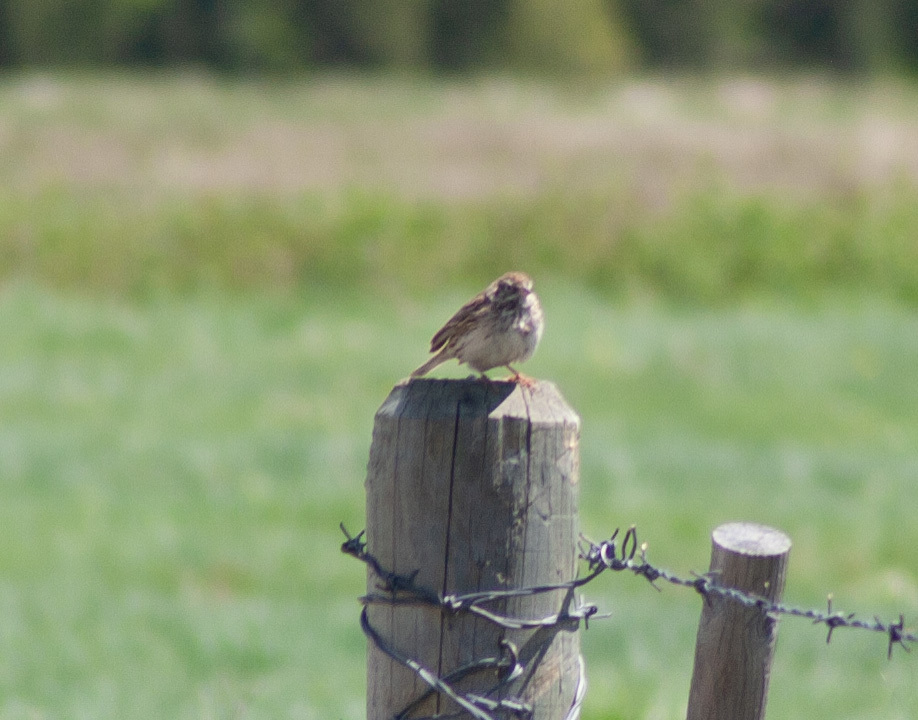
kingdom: Animalia
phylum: Chordata
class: Aves
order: Passeriformes
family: Passerellidae
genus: Pooecetes
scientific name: Pooecetes gramineus
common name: Vesper sparrow
